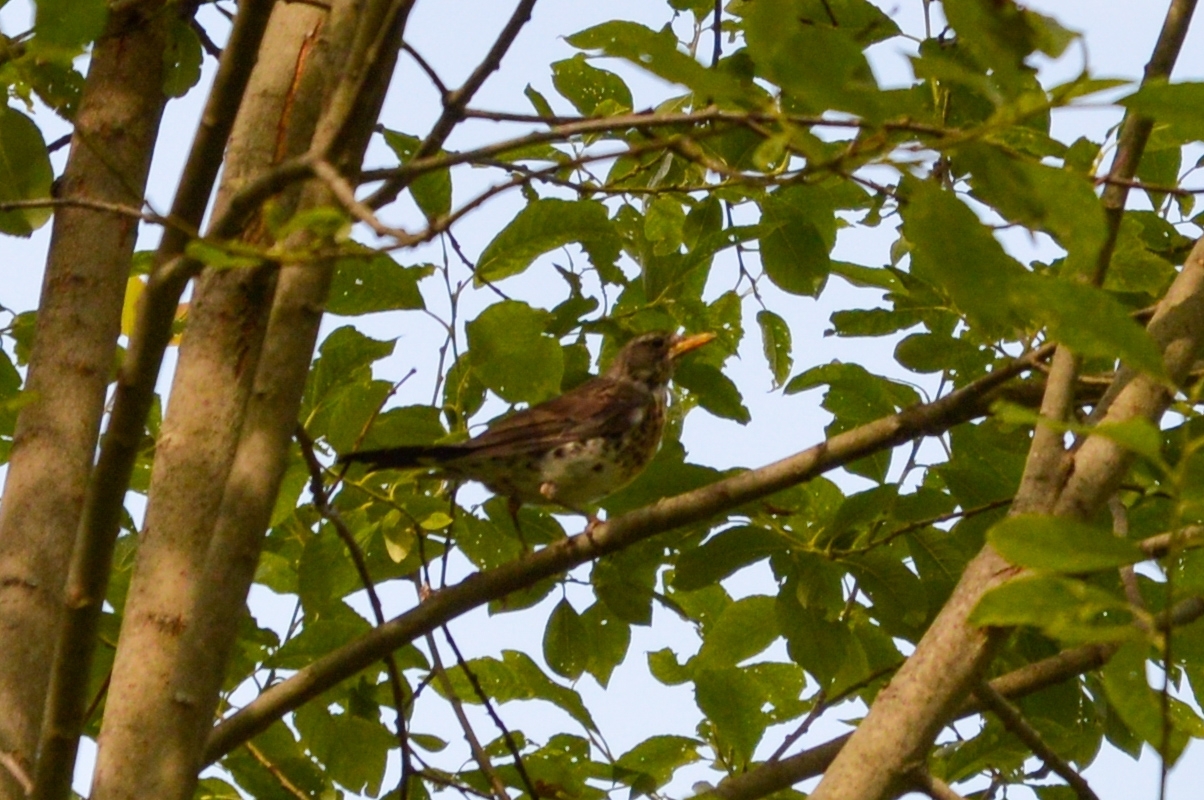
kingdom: Animalia
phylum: Chordata
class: Aves
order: Passeriformes
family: Turdidae
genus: Turdus
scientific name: Turdus pilaris
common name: Fieldfare
